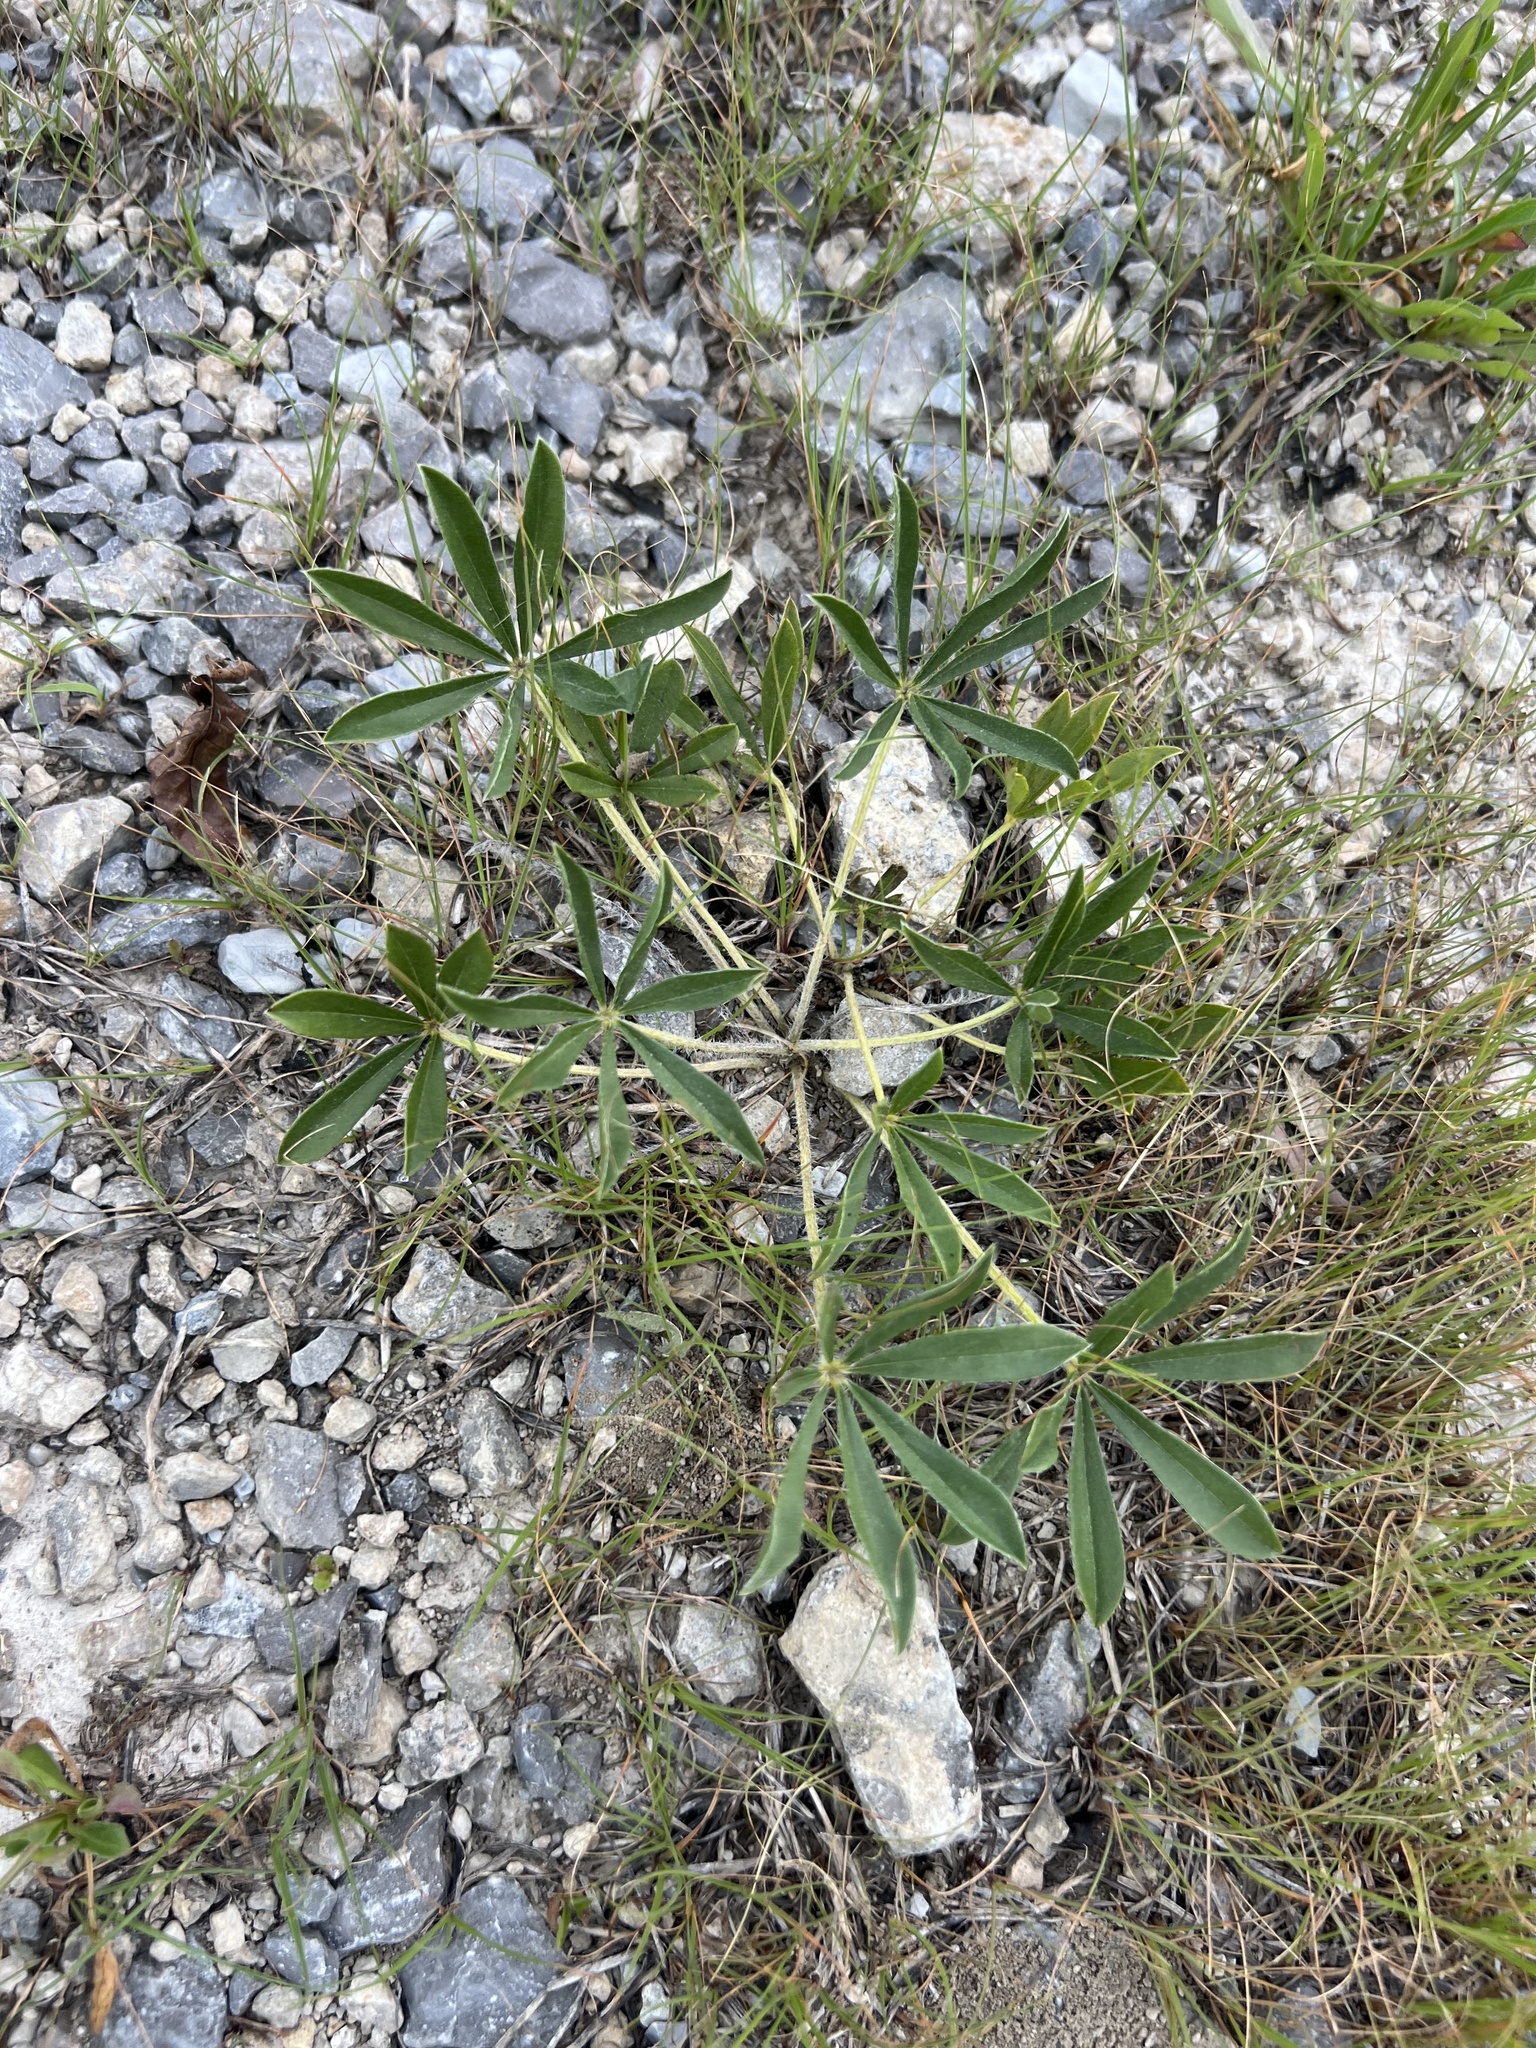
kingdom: Plantae
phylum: Tracheophyta
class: Magnoliopsida
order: Fabales
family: Fabaceae
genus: Pediomelum
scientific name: Pediomelum subacaule
